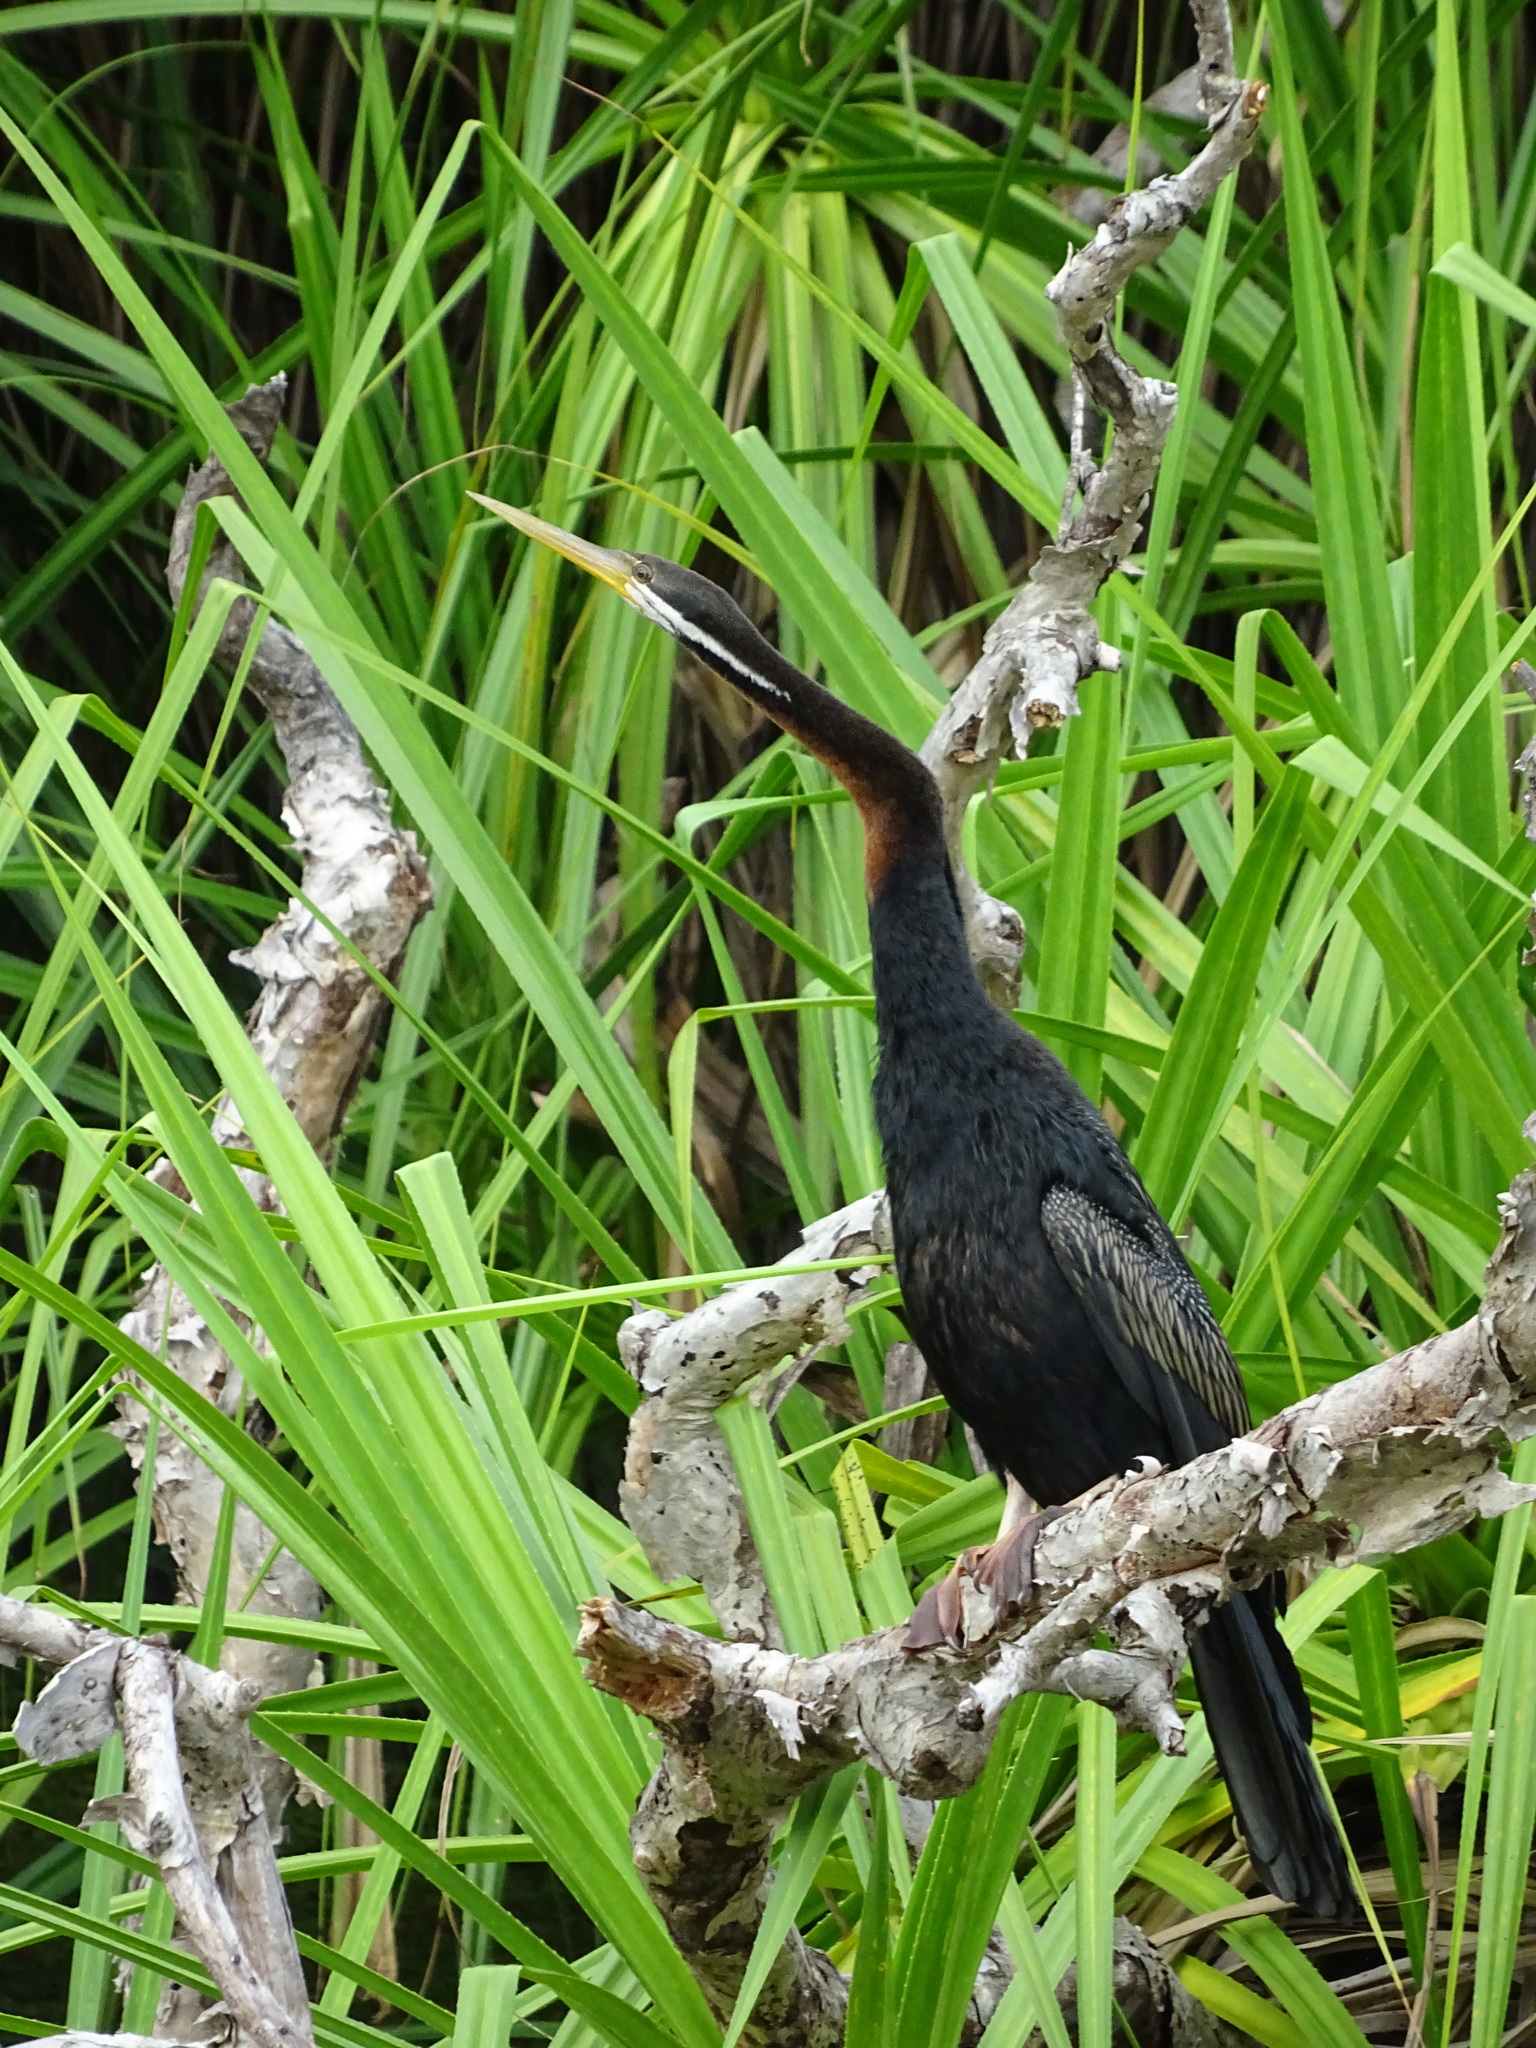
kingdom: Animalia
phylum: Chordata
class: Aves
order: Suliformes
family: Anhingidae
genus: Anhinga
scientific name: Anhinga novaehollandiae
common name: Australasian darter
